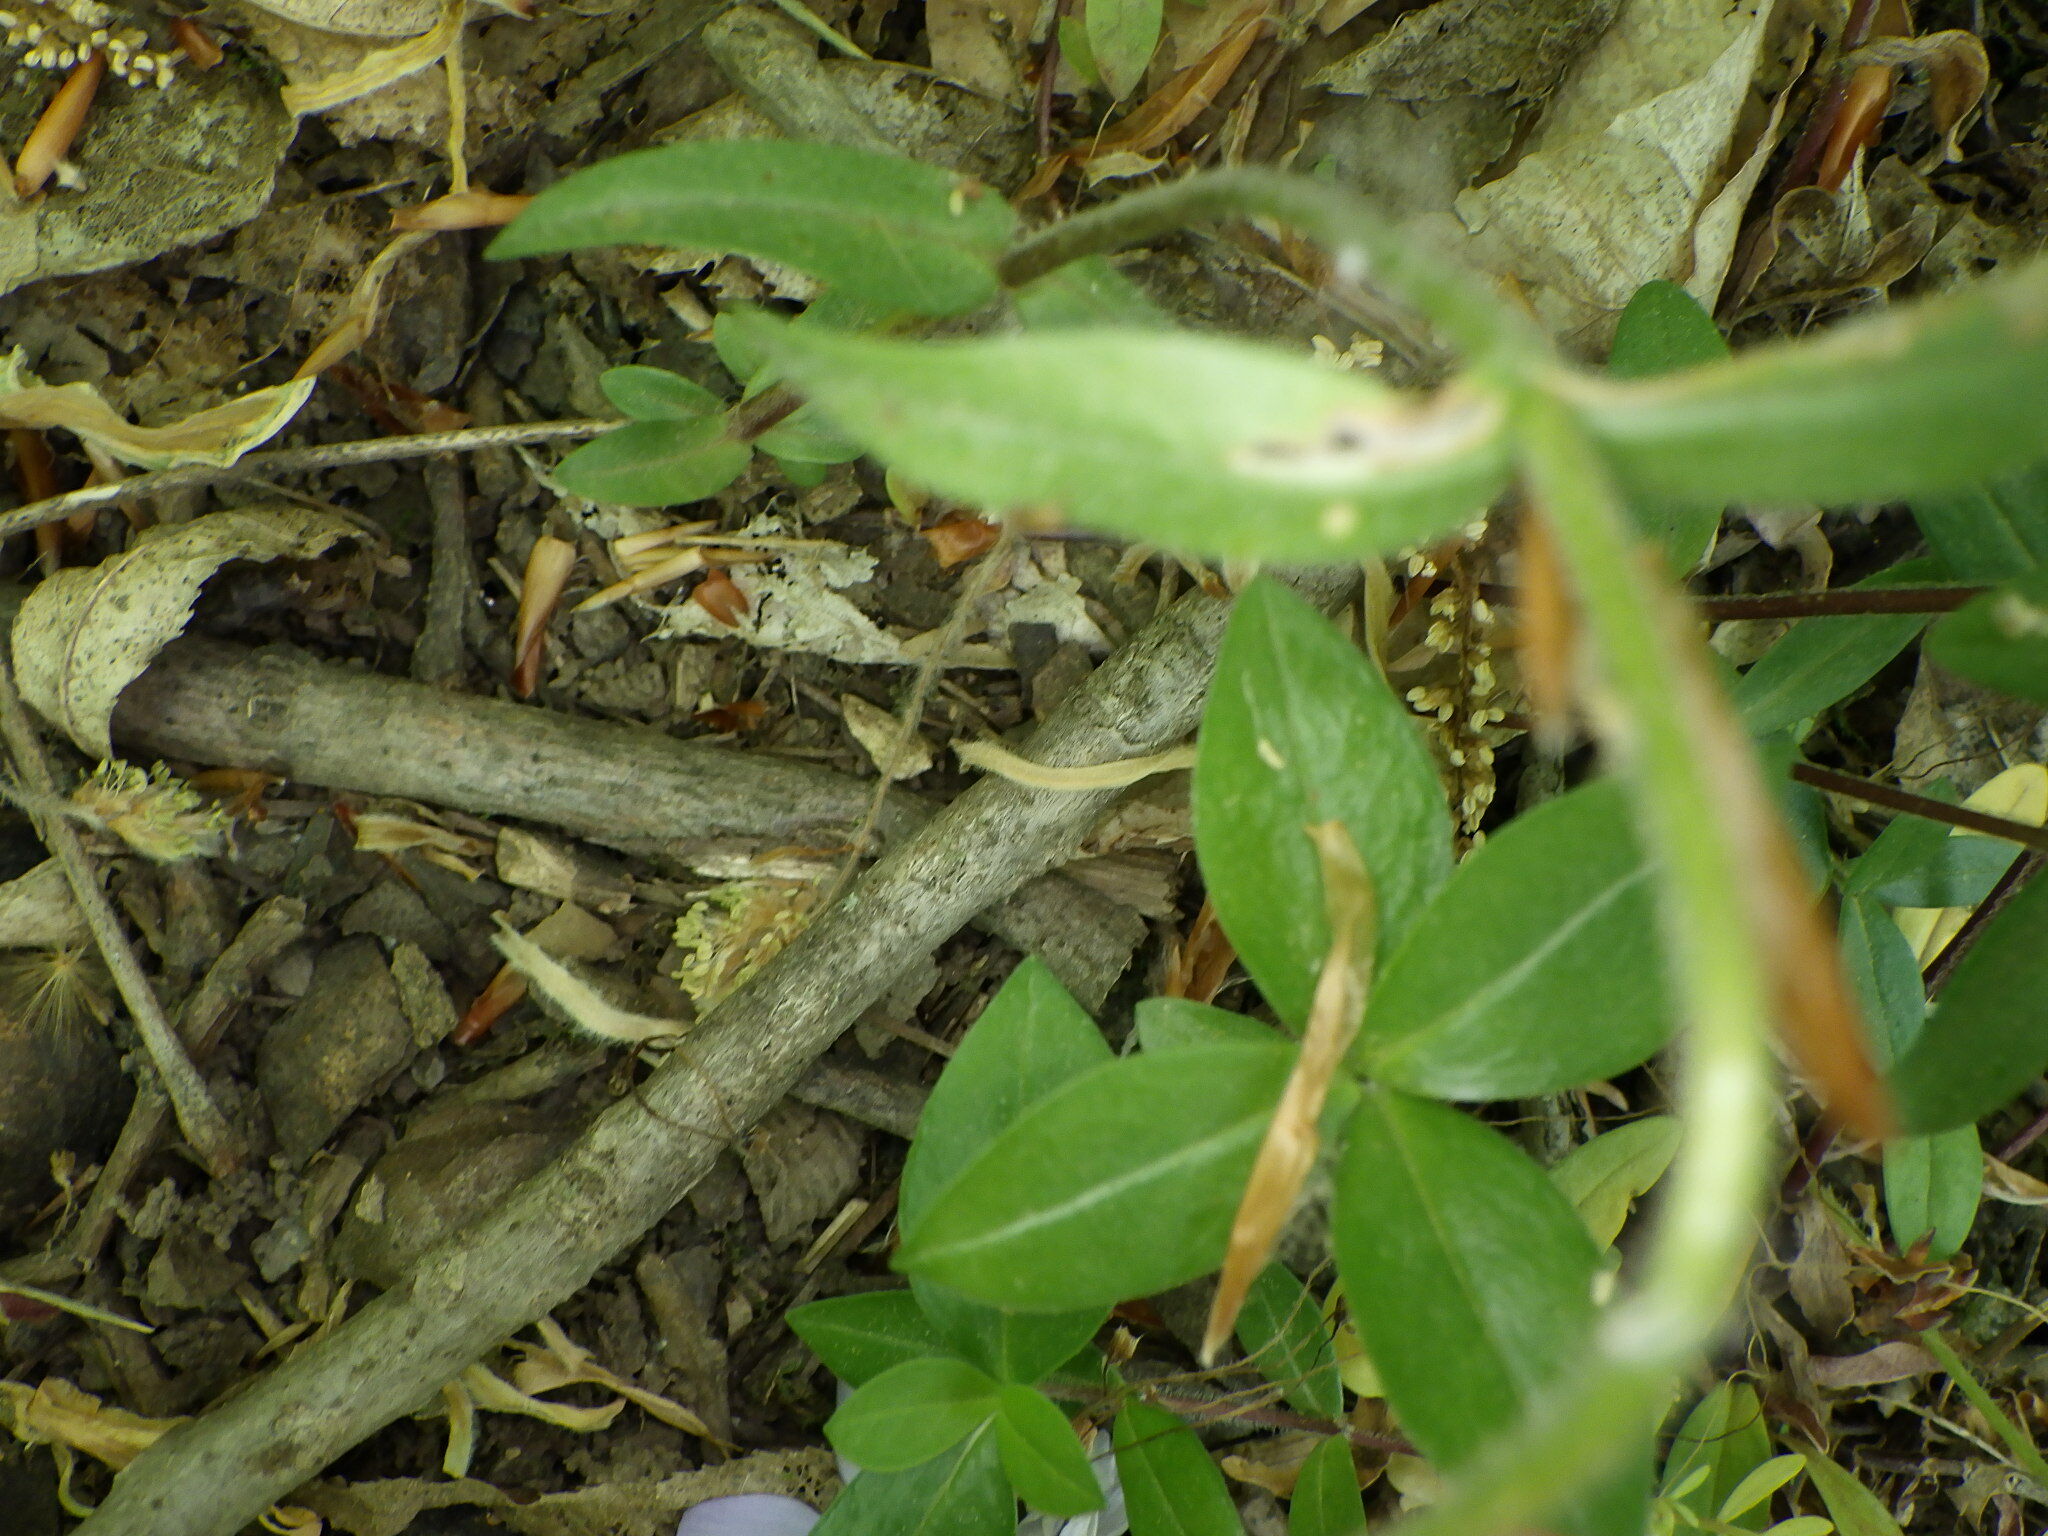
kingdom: Plantae
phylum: Tracheophyta
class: Magnoliopsida
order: Ericales
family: Polemoniaceae
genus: Phlox
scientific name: Phlox divaricata
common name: Blue phlox
